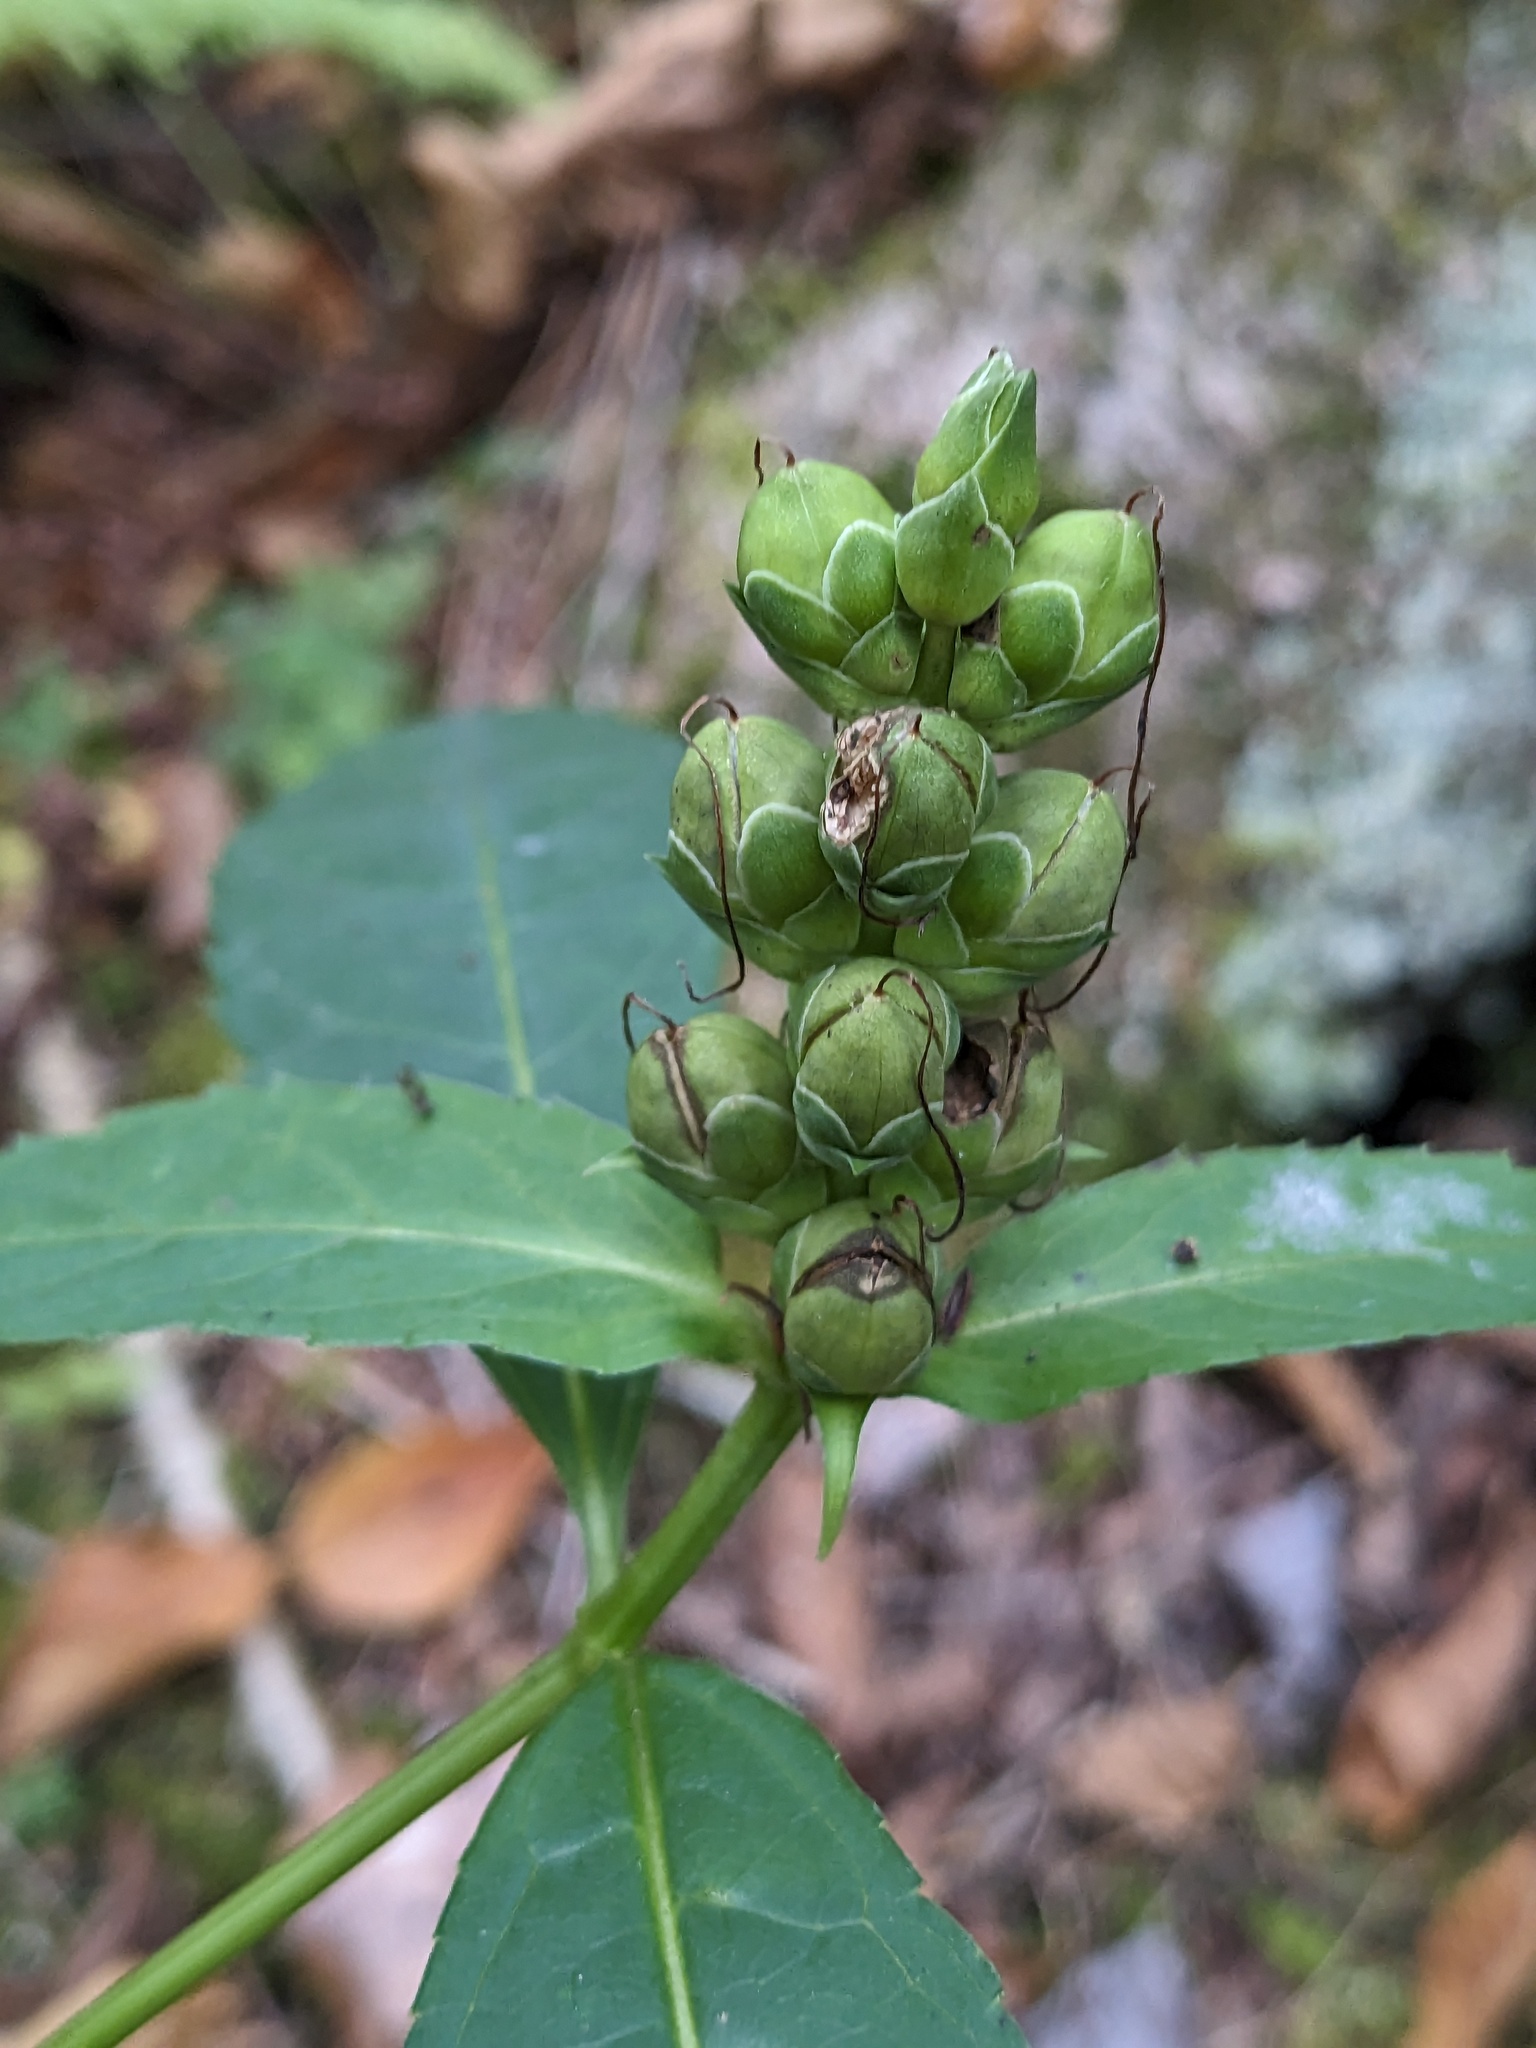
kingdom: Plantae
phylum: Tracheophyta
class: Magnoliopsida
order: Lamiales
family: Plantaginaceae
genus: Chelone
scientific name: Chelone glabra
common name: Snakehead
